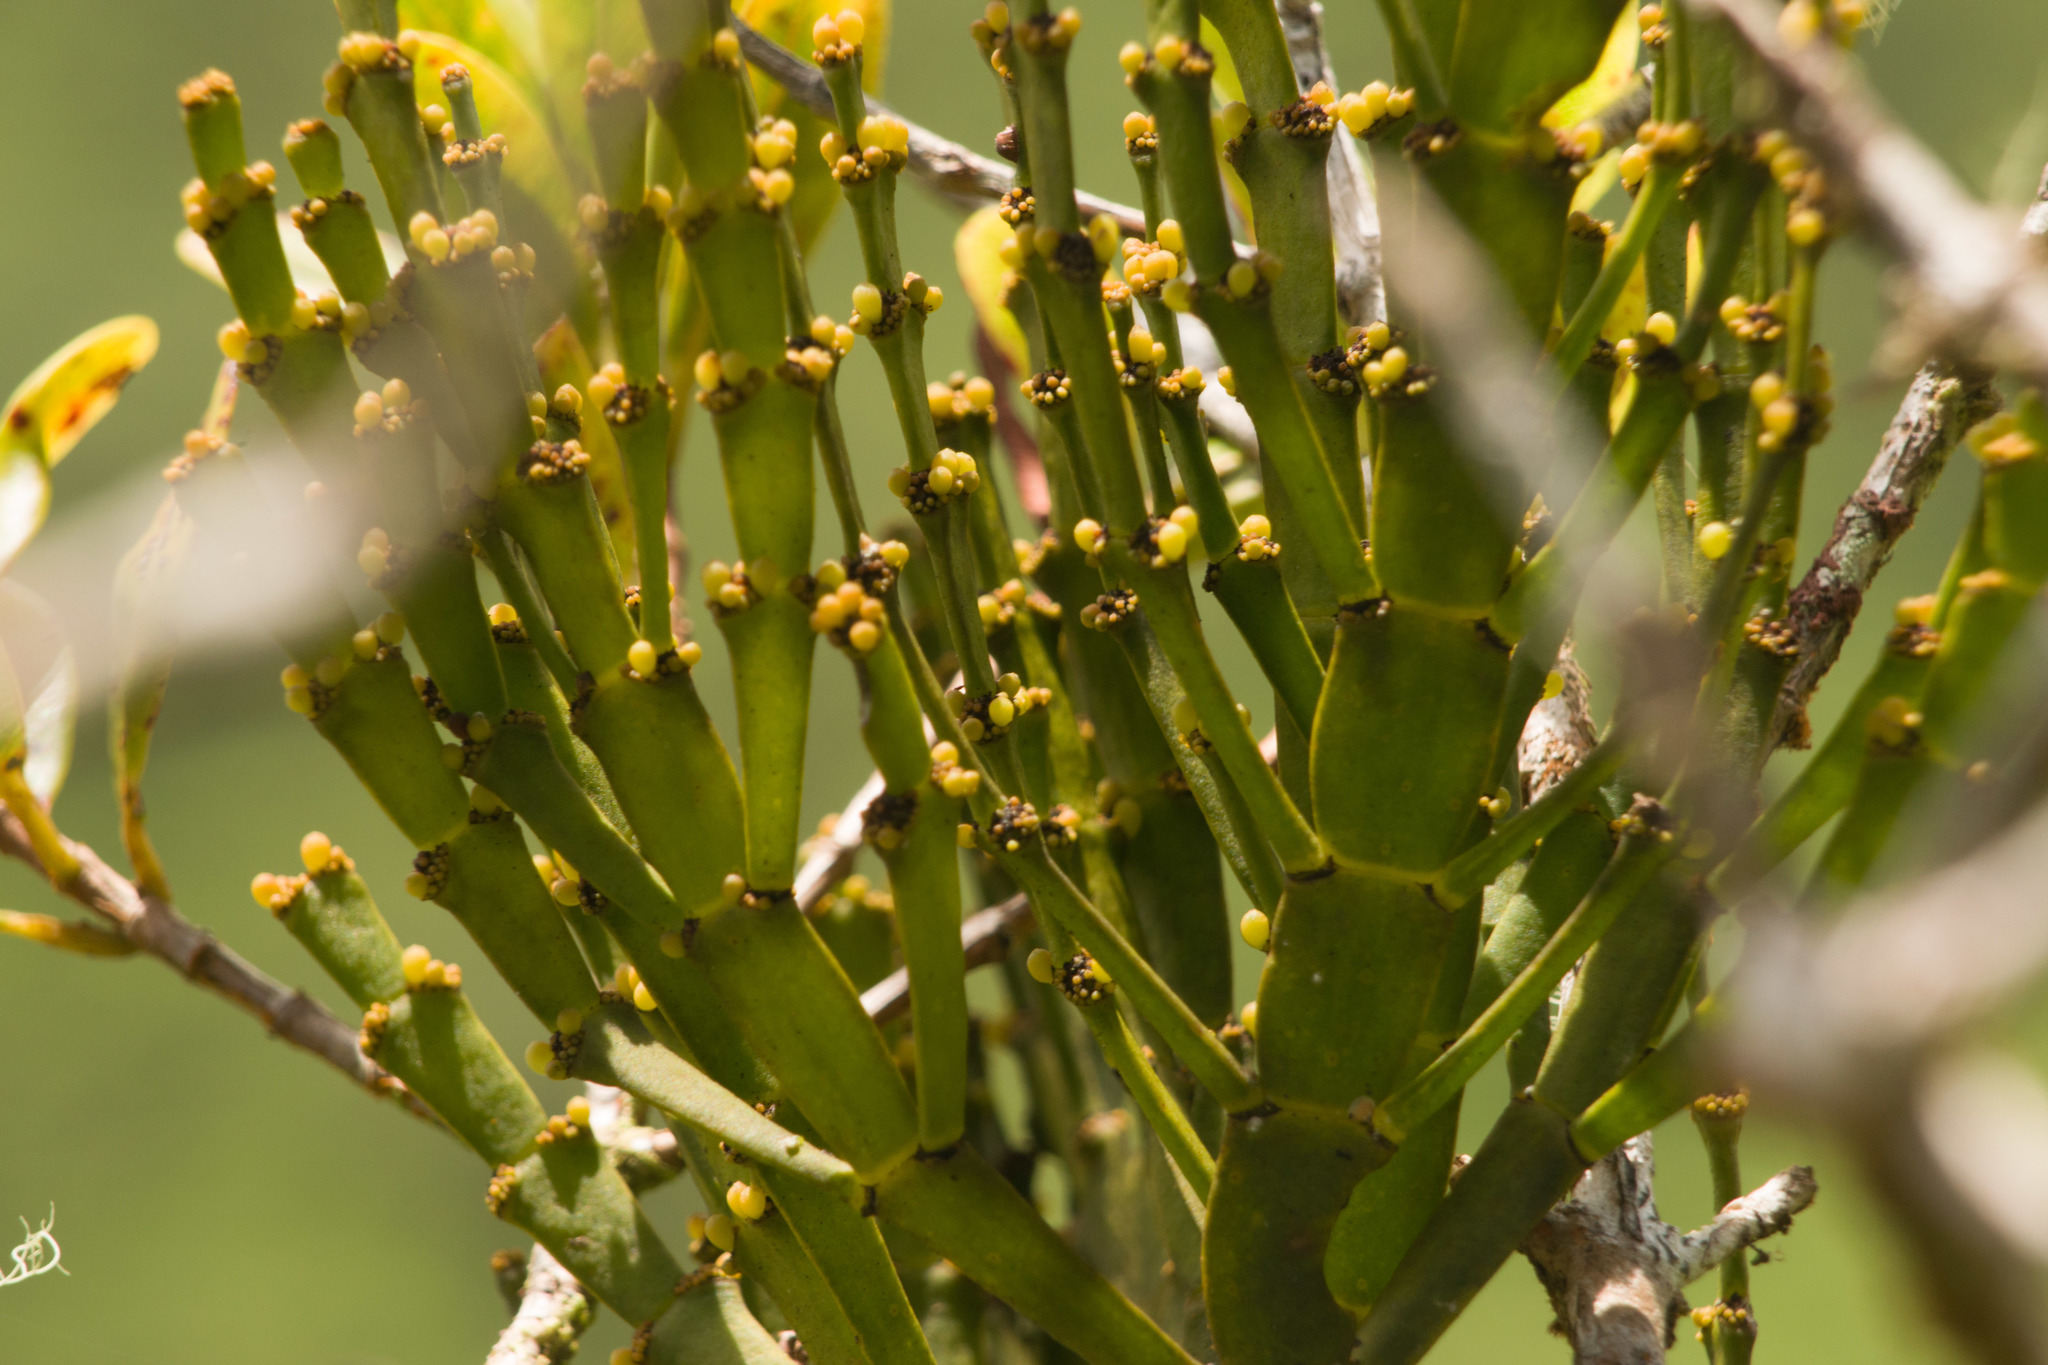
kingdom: Plantae
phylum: Tracheophyta
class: Magnoliopsida
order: Santalales
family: Viscaceae
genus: Korthalsella
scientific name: Korthalsella complanata
